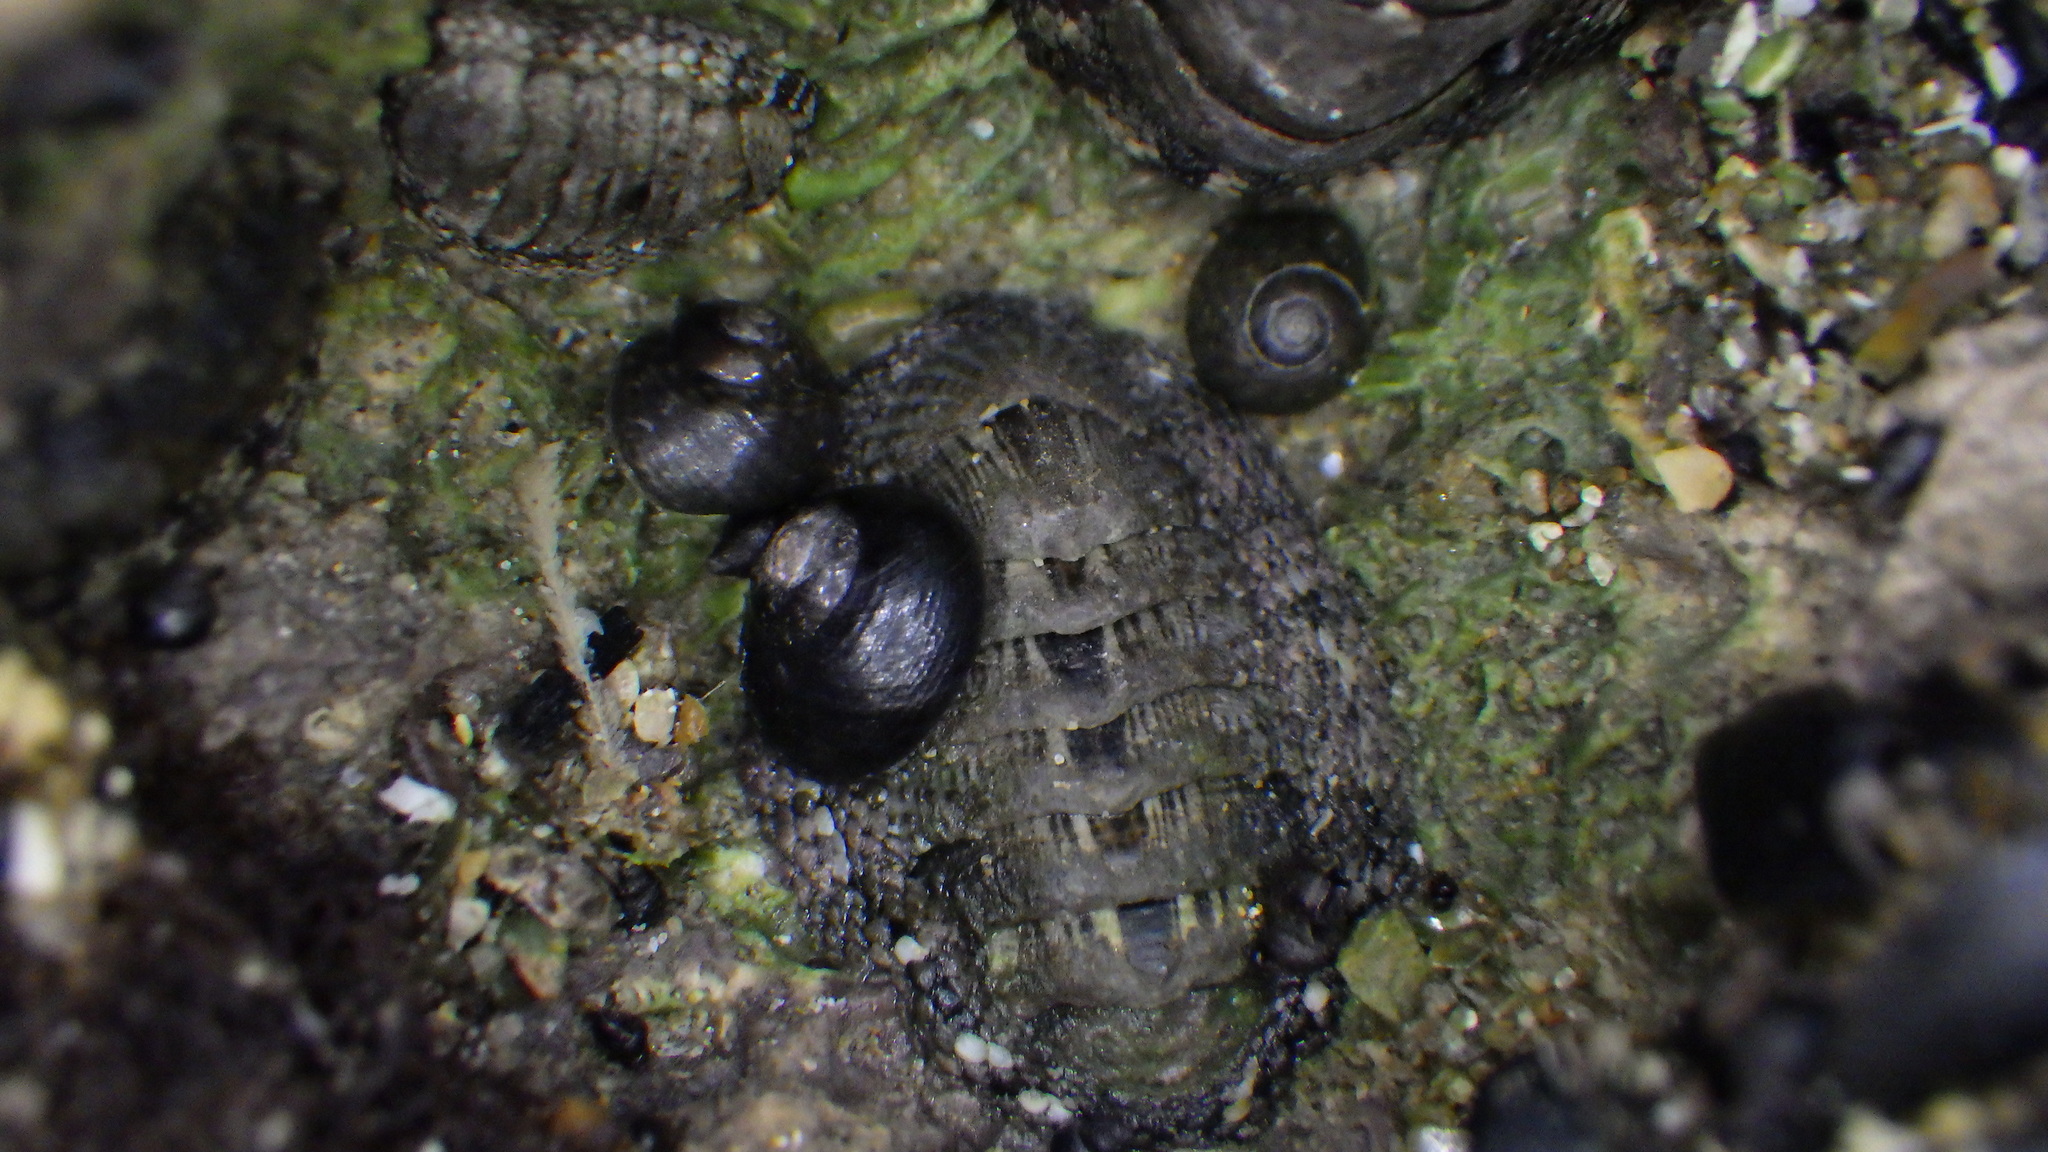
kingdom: Animalia
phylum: Mollusca
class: Gastropoda
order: Trochida
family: Trochidae
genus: Diloma
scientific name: Diloma coracinum
